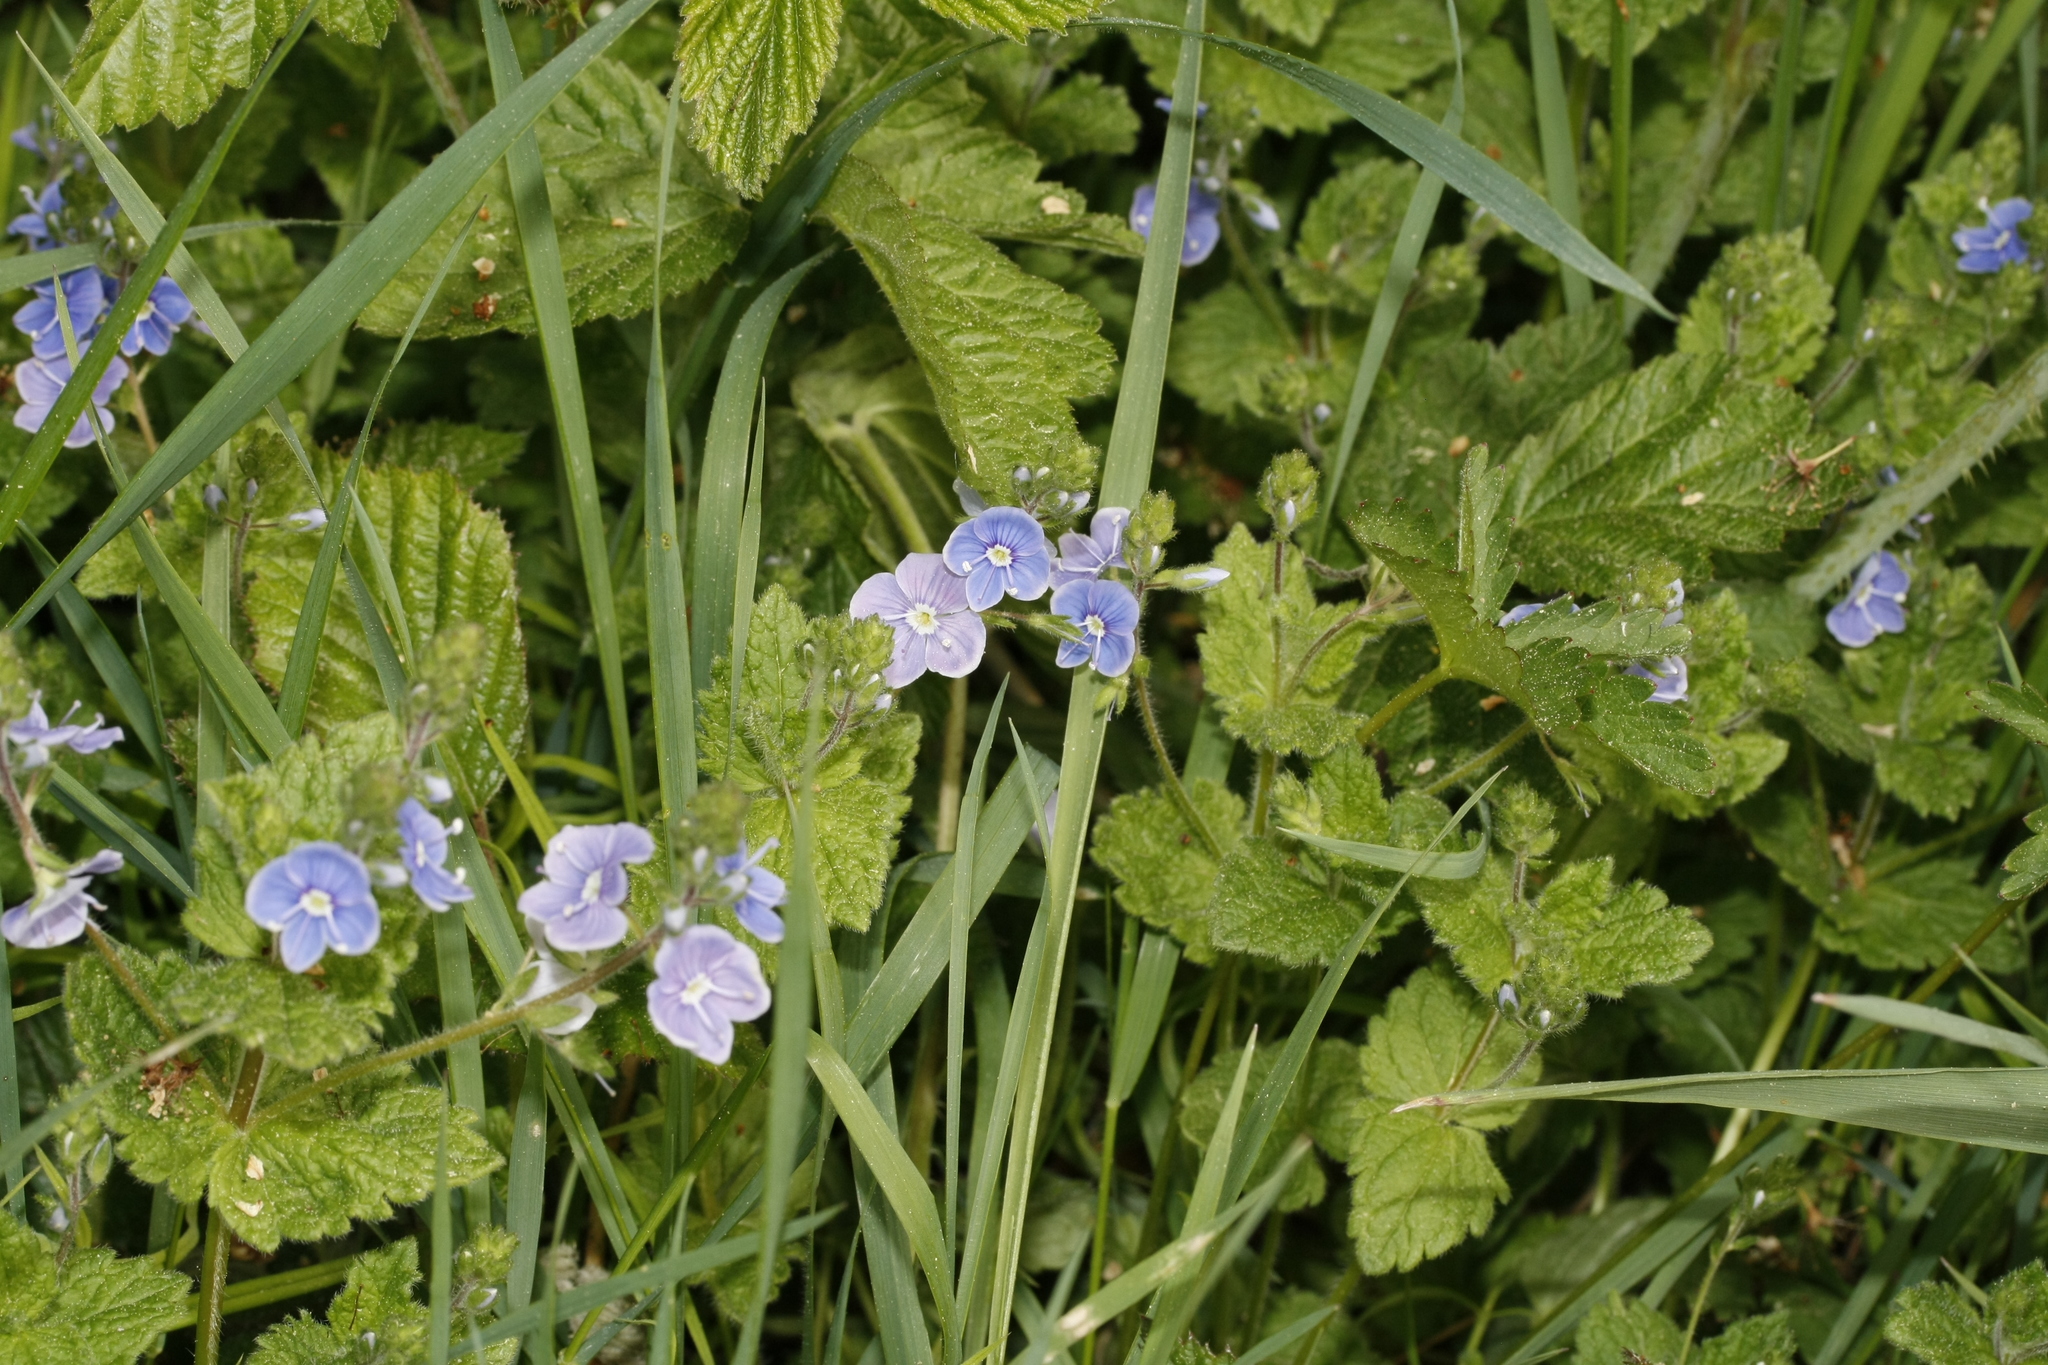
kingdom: Plantae
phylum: Tracheophyta
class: Magnoliopsida
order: Lamiales
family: Plantaginaceae
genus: Veronica
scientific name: Veronica chamaedrys
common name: Germander speedwell
